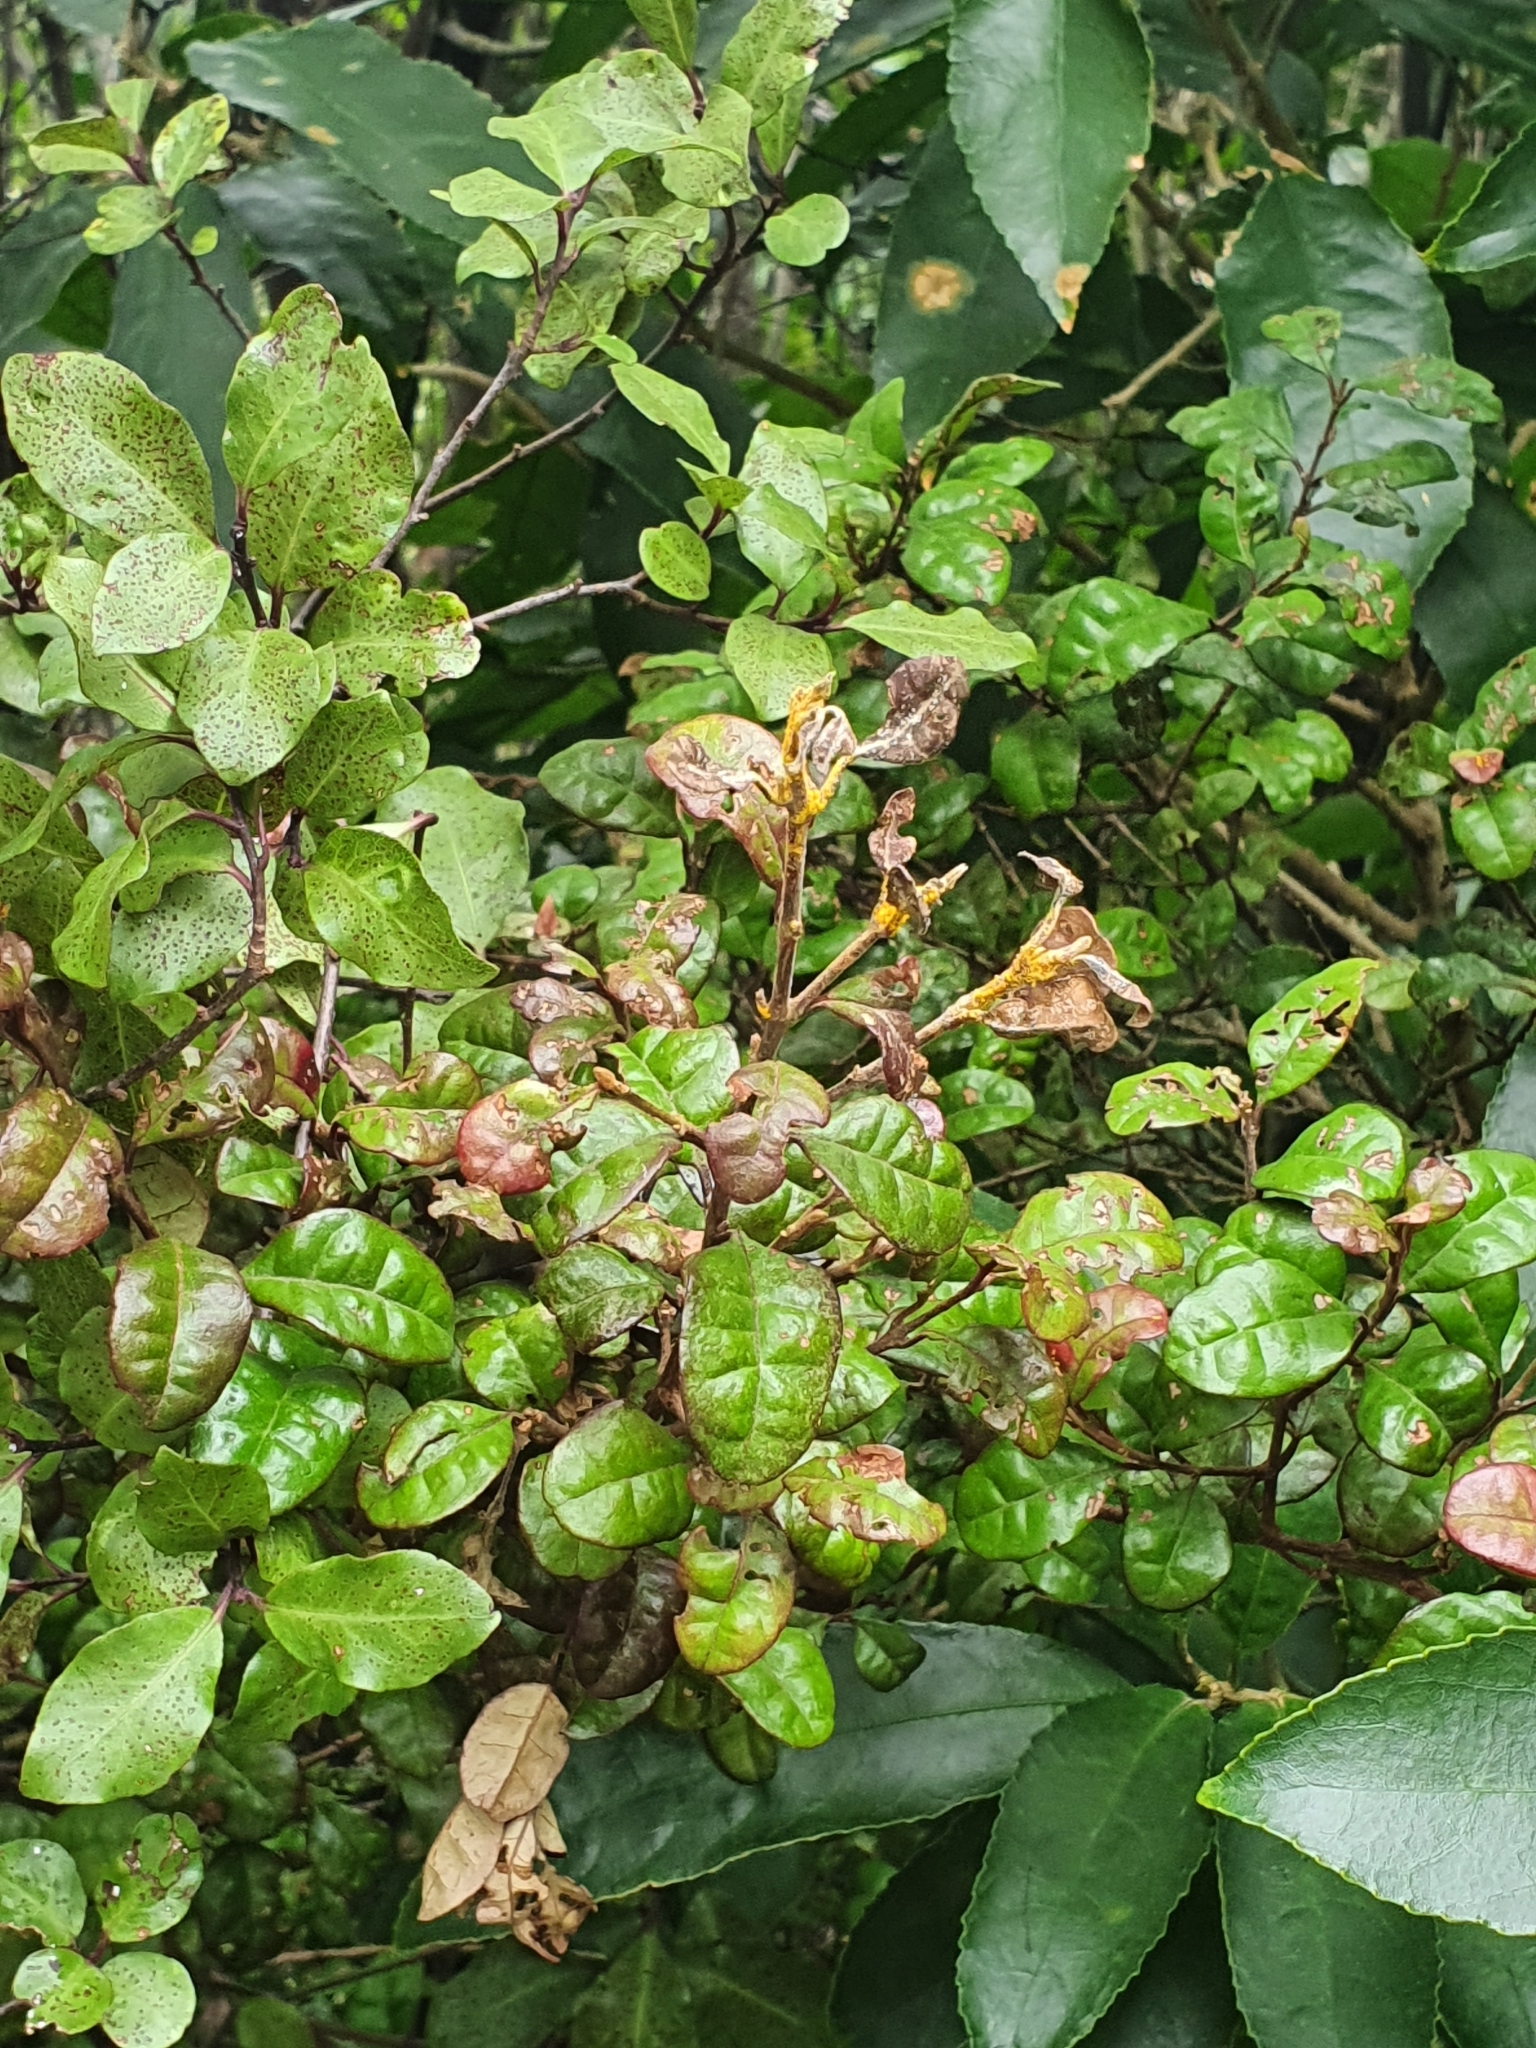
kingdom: Fungi
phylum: Basidiomycota
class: Pucciniomycetes
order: Pucciniales
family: Sphaerophragmiaceae
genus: Austropuccinia
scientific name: Austropuccinia psidii
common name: Myrtle rust
